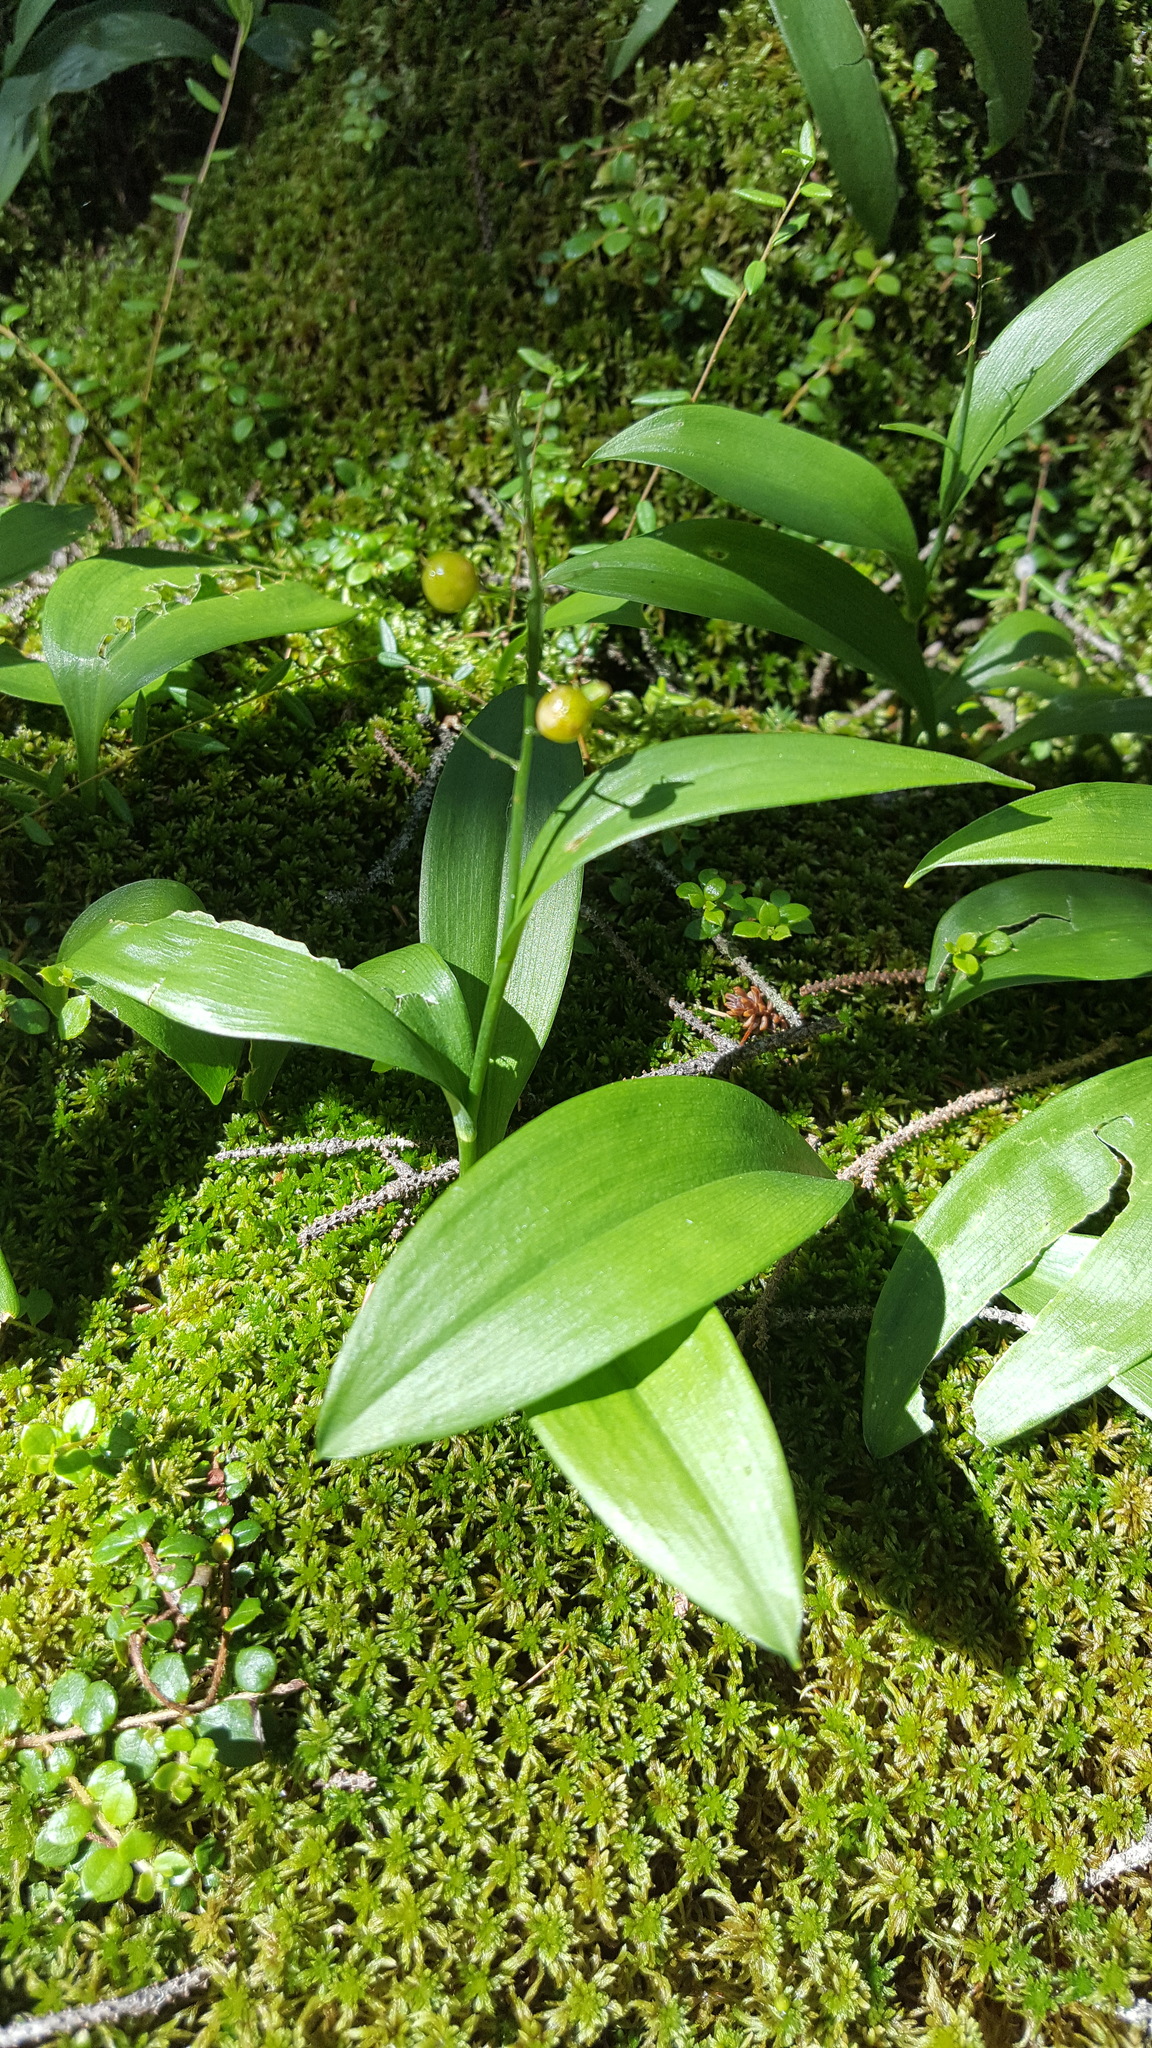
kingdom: Plantae
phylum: Tracheophyta
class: Liliopsida
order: Asparagales
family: Asparagaceae
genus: Maianthemum
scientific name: Maianthemum trifolium
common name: Swamp false solomon's seal
